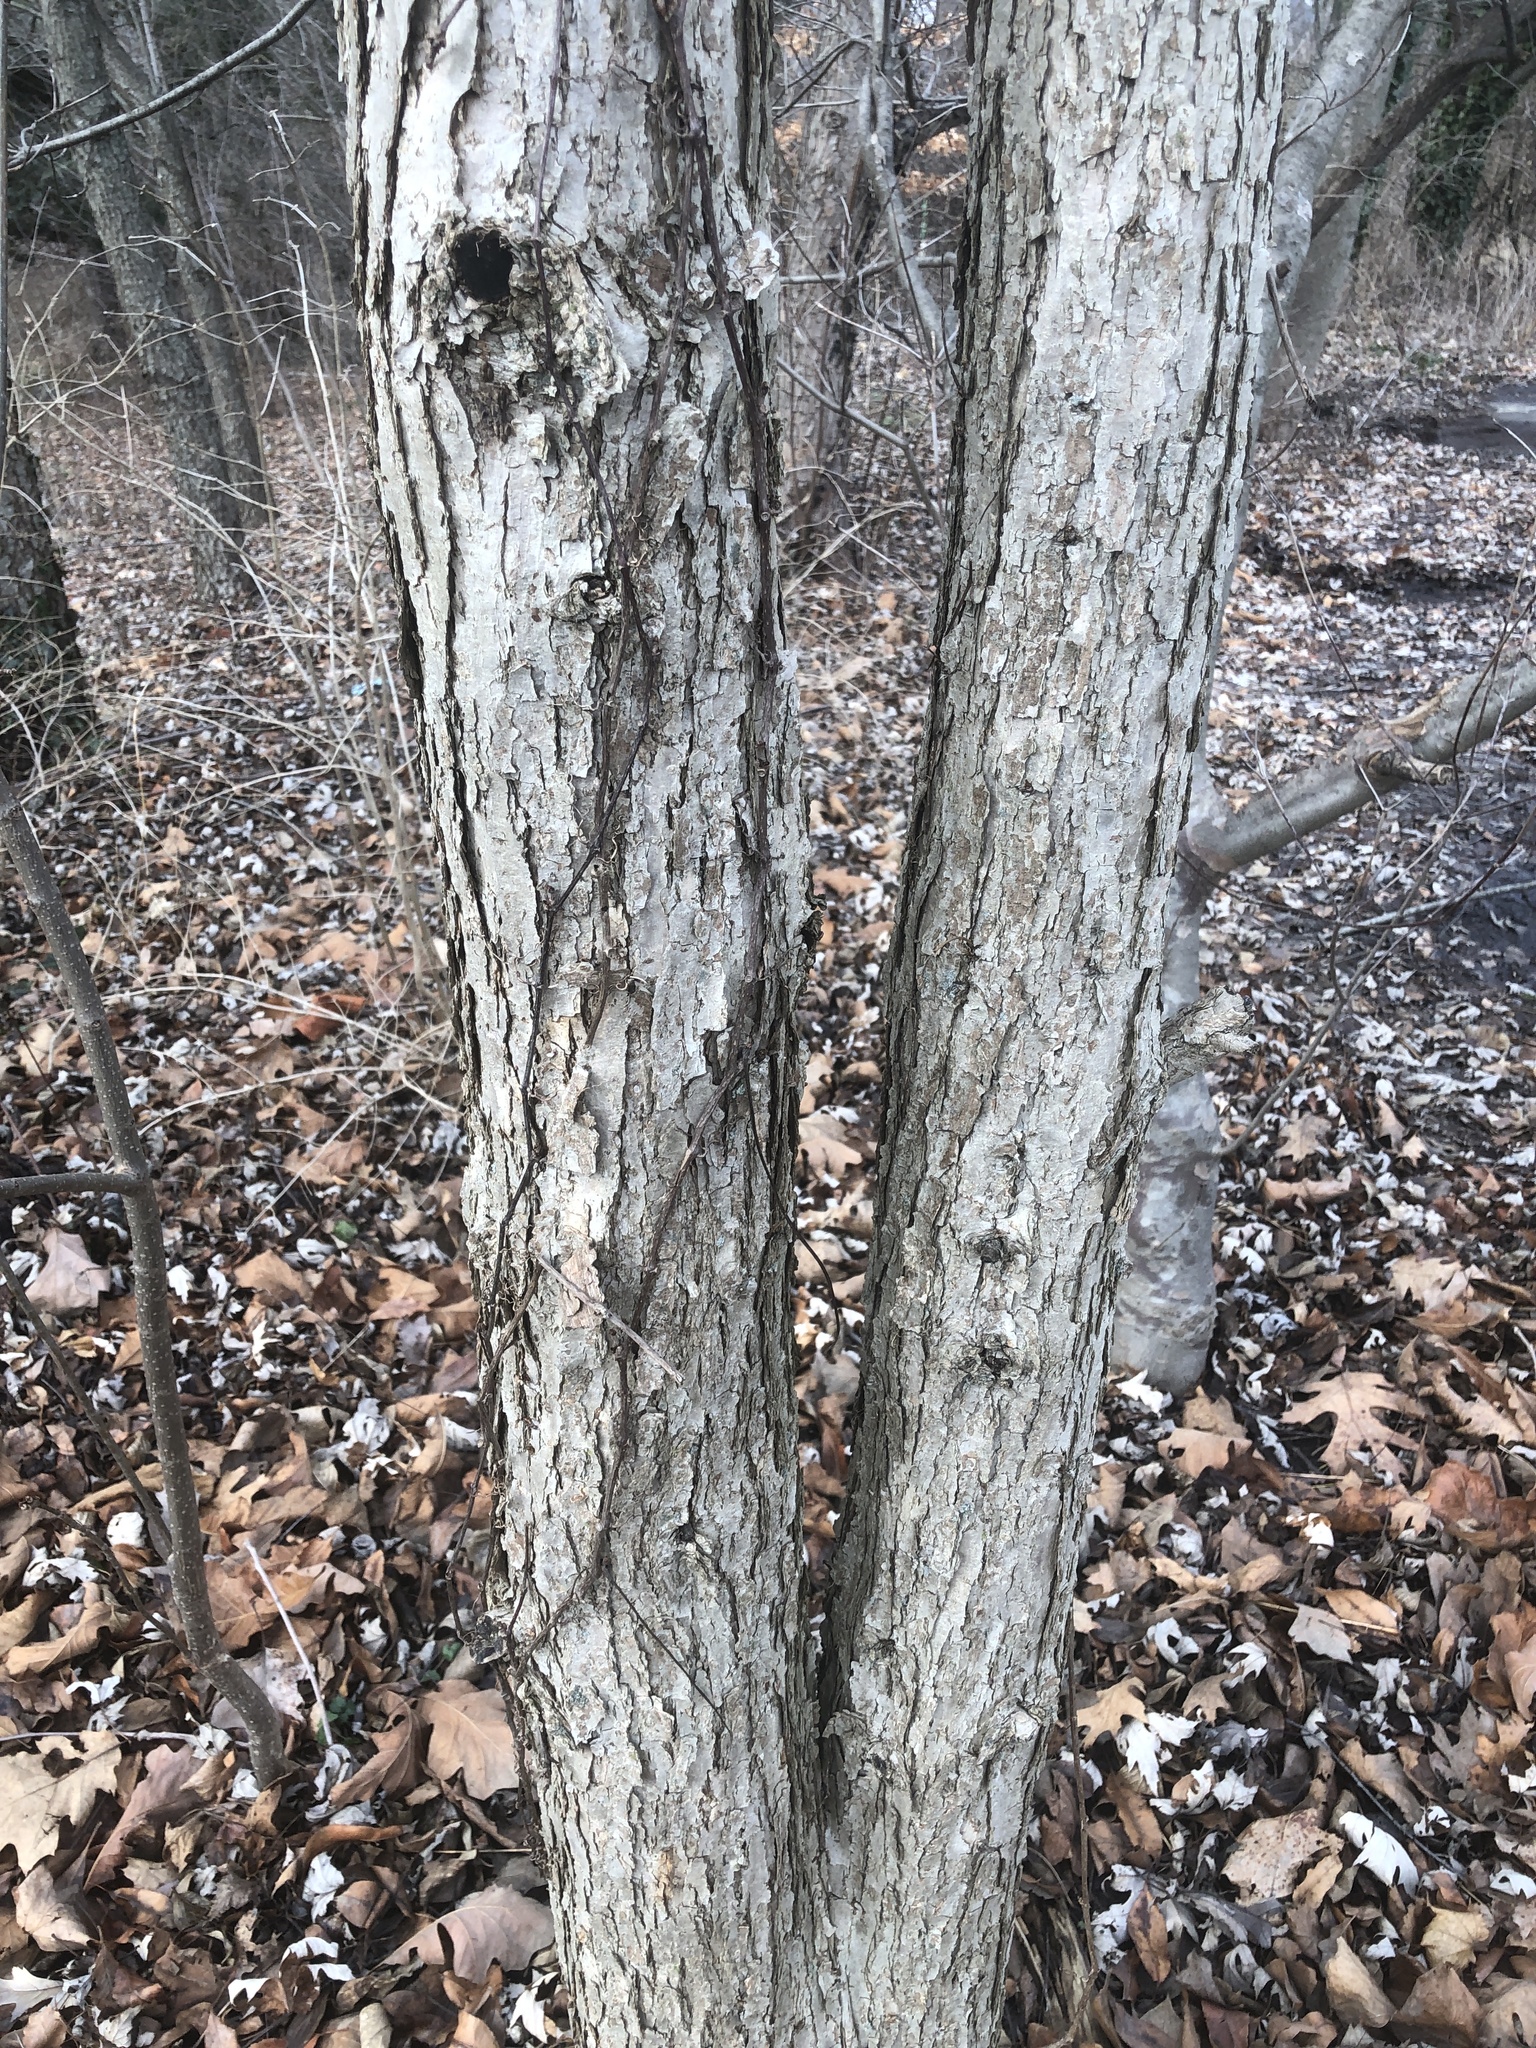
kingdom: Plantae
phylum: Tracheophyta
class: Magnoliopsida
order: Fagales
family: Fagaceae
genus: Quercus
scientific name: Quercus bicolor
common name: Swamp white oak
